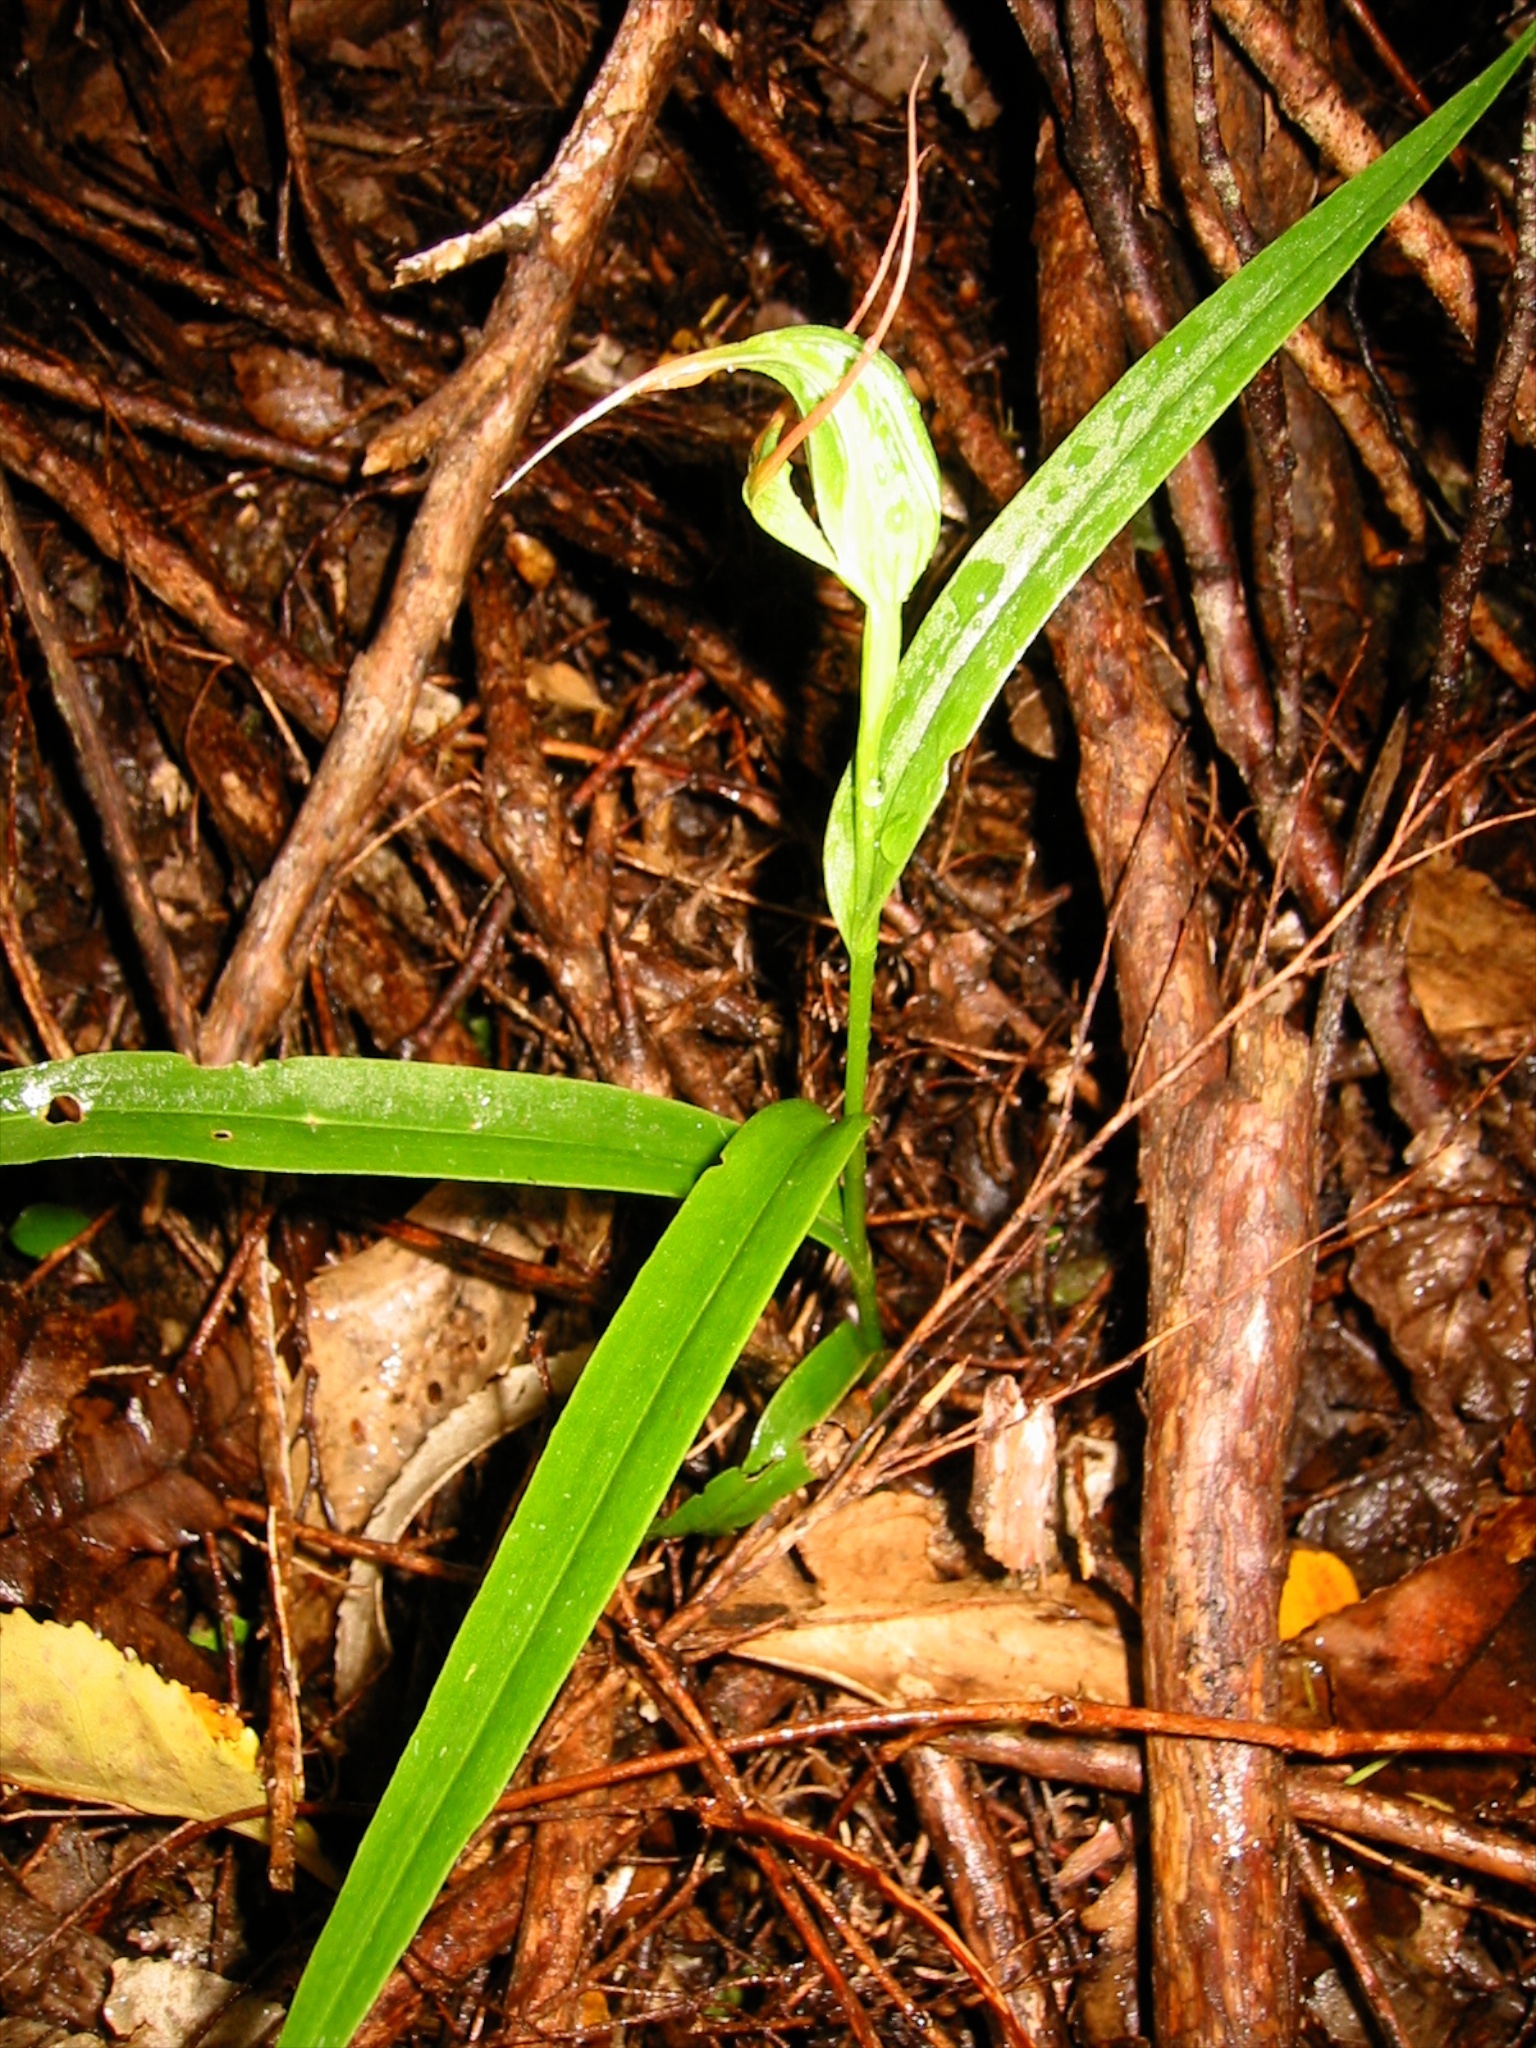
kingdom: Plantae
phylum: Tracheophyta
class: Liliopsida
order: Asparagales
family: Orchidaceae
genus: Pterostylis
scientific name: Pterostylis banksii
